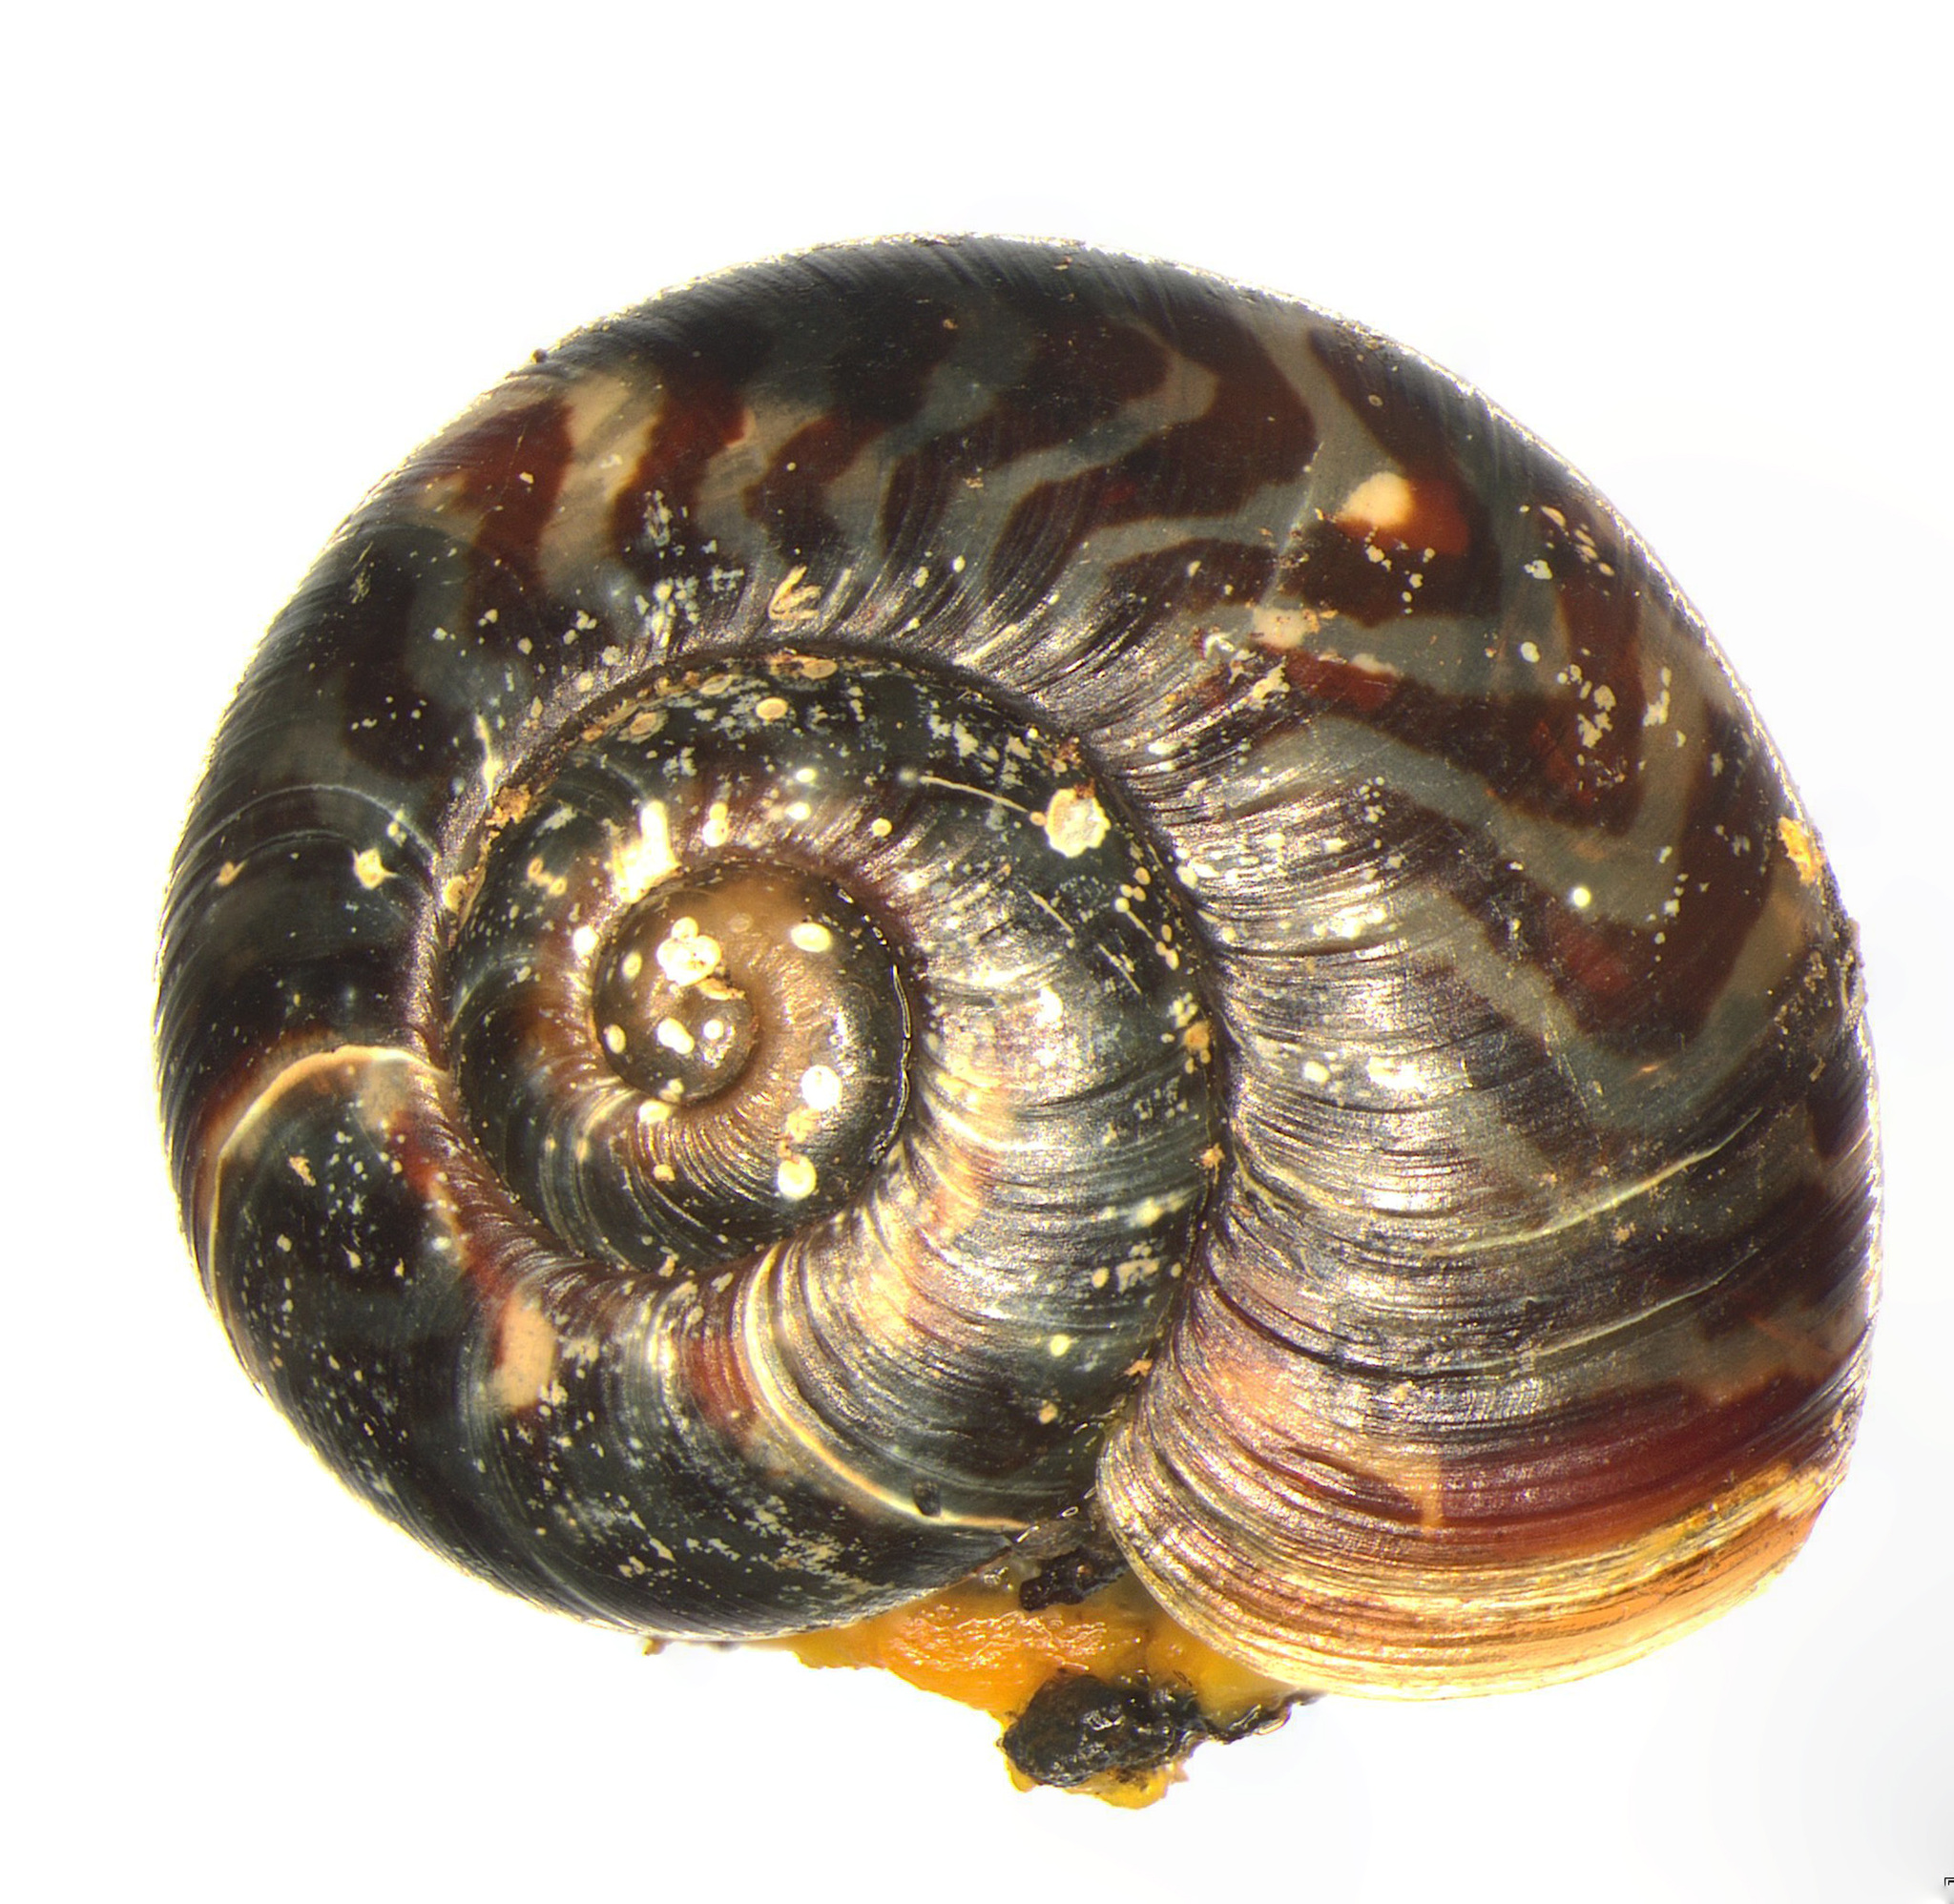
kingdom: Animalia
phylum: Mollusca
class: Gastropoda
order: Stylommatophora
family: Charopidae
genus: Flammulina
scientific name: Flammulina crebriflammea
